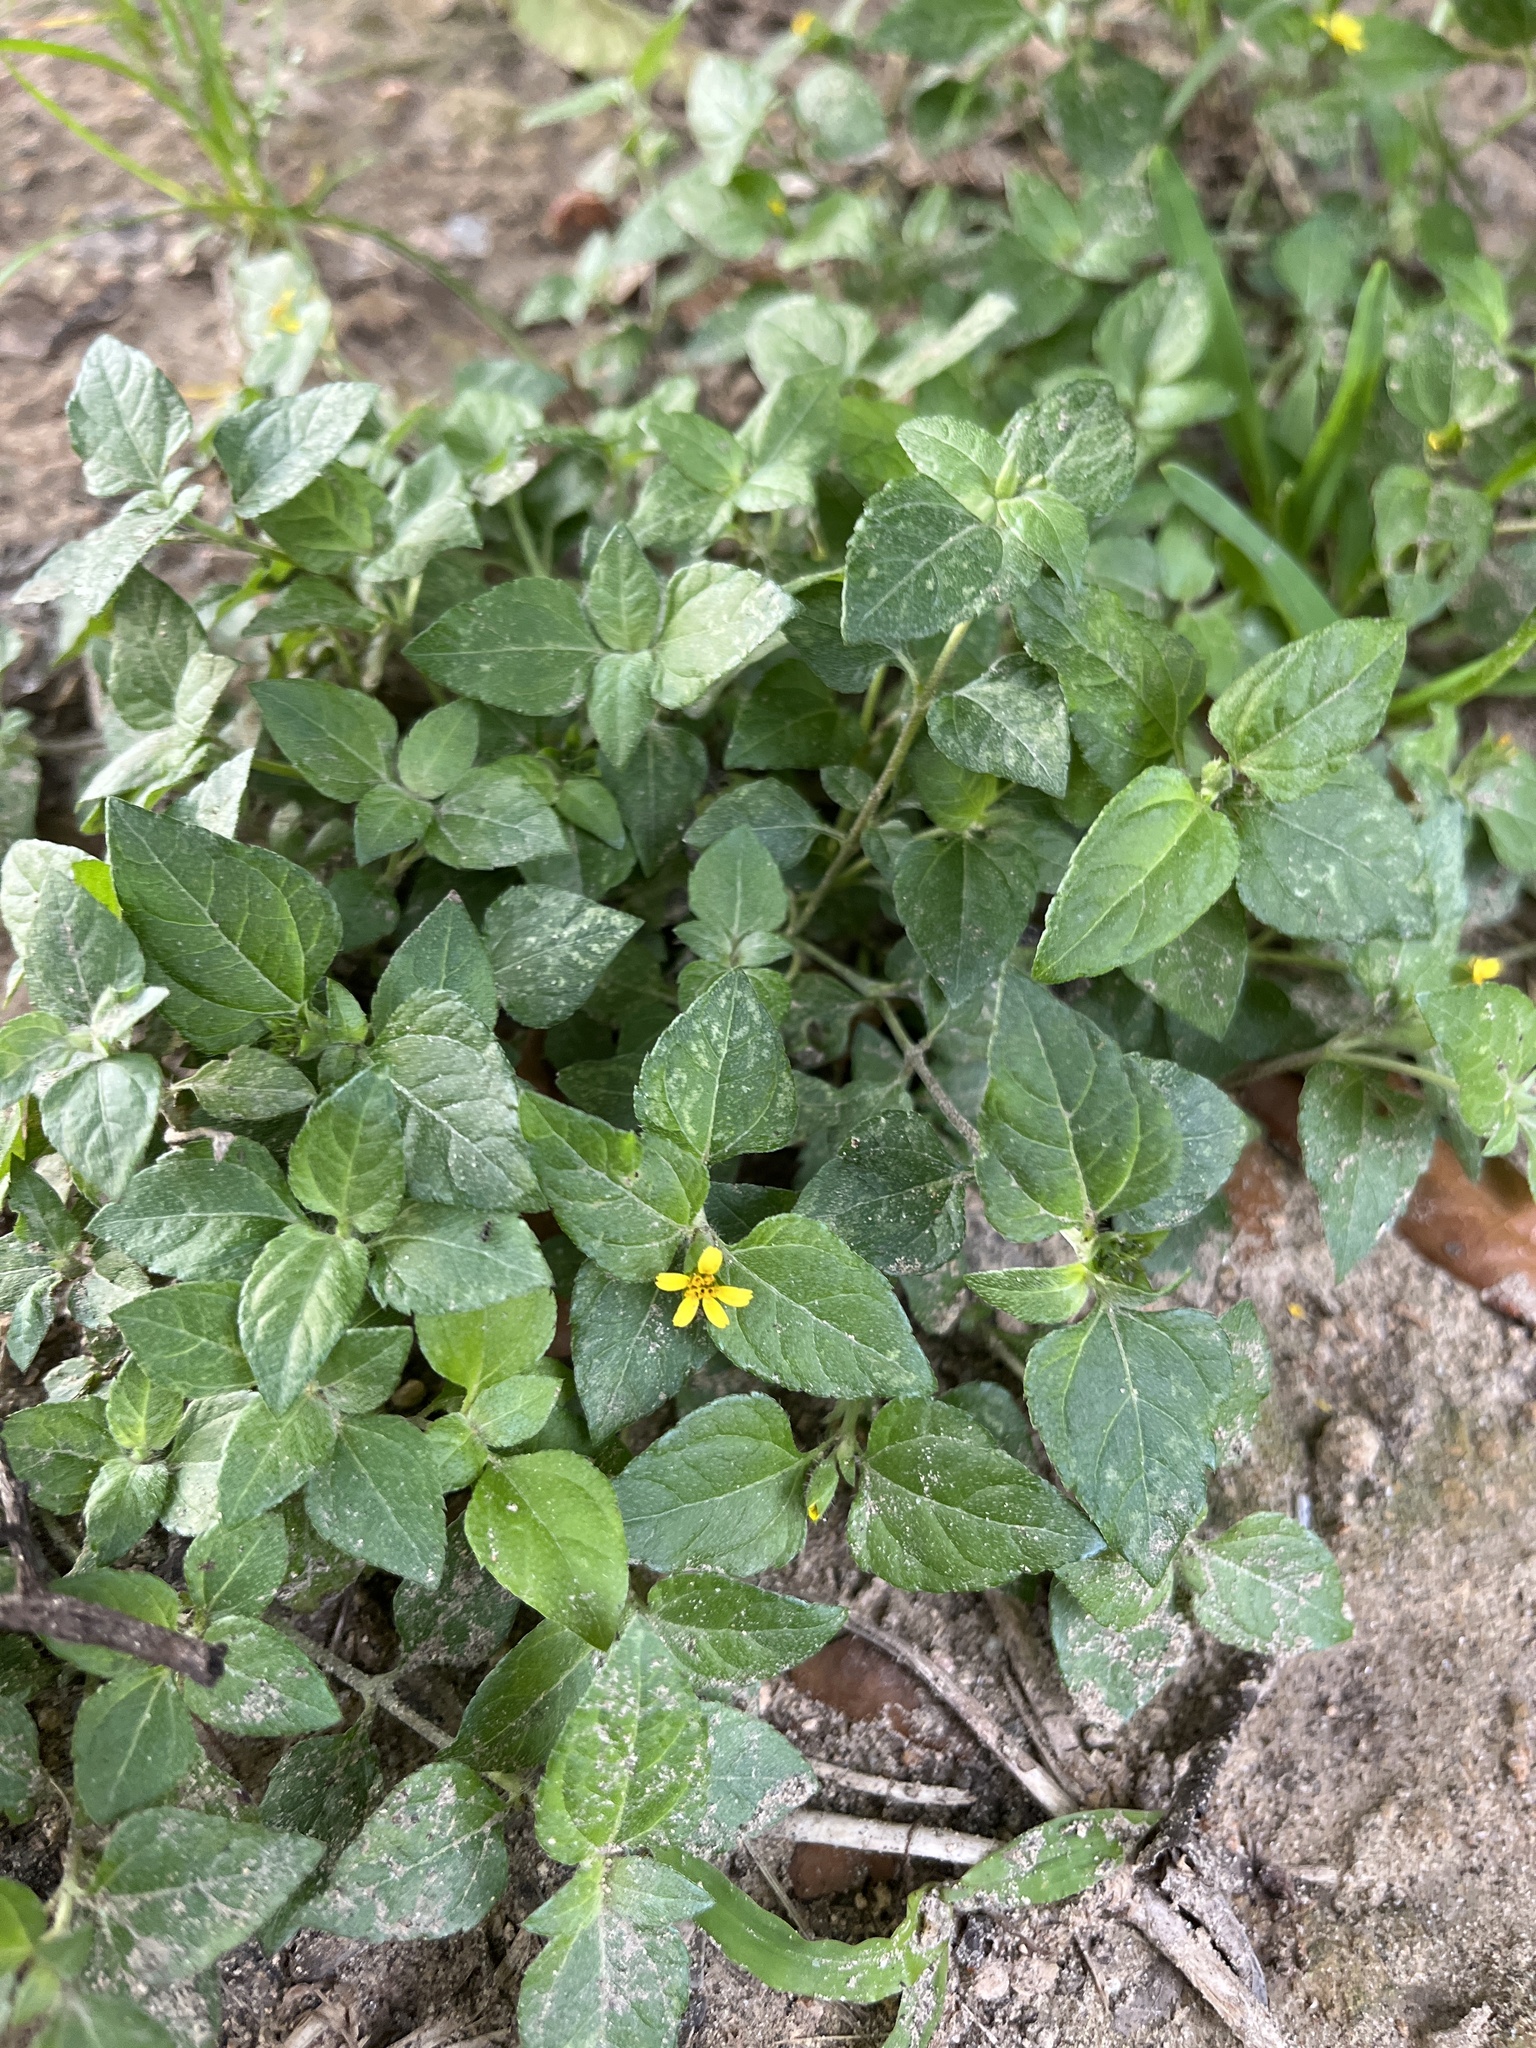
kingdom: Plantae
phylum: Tracheophyta
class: Magnoliopsida
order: Asterales
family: Asteraceae
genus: Calyptocarpus
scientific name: Calyptocarpus vialis
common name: Straggler daisy
